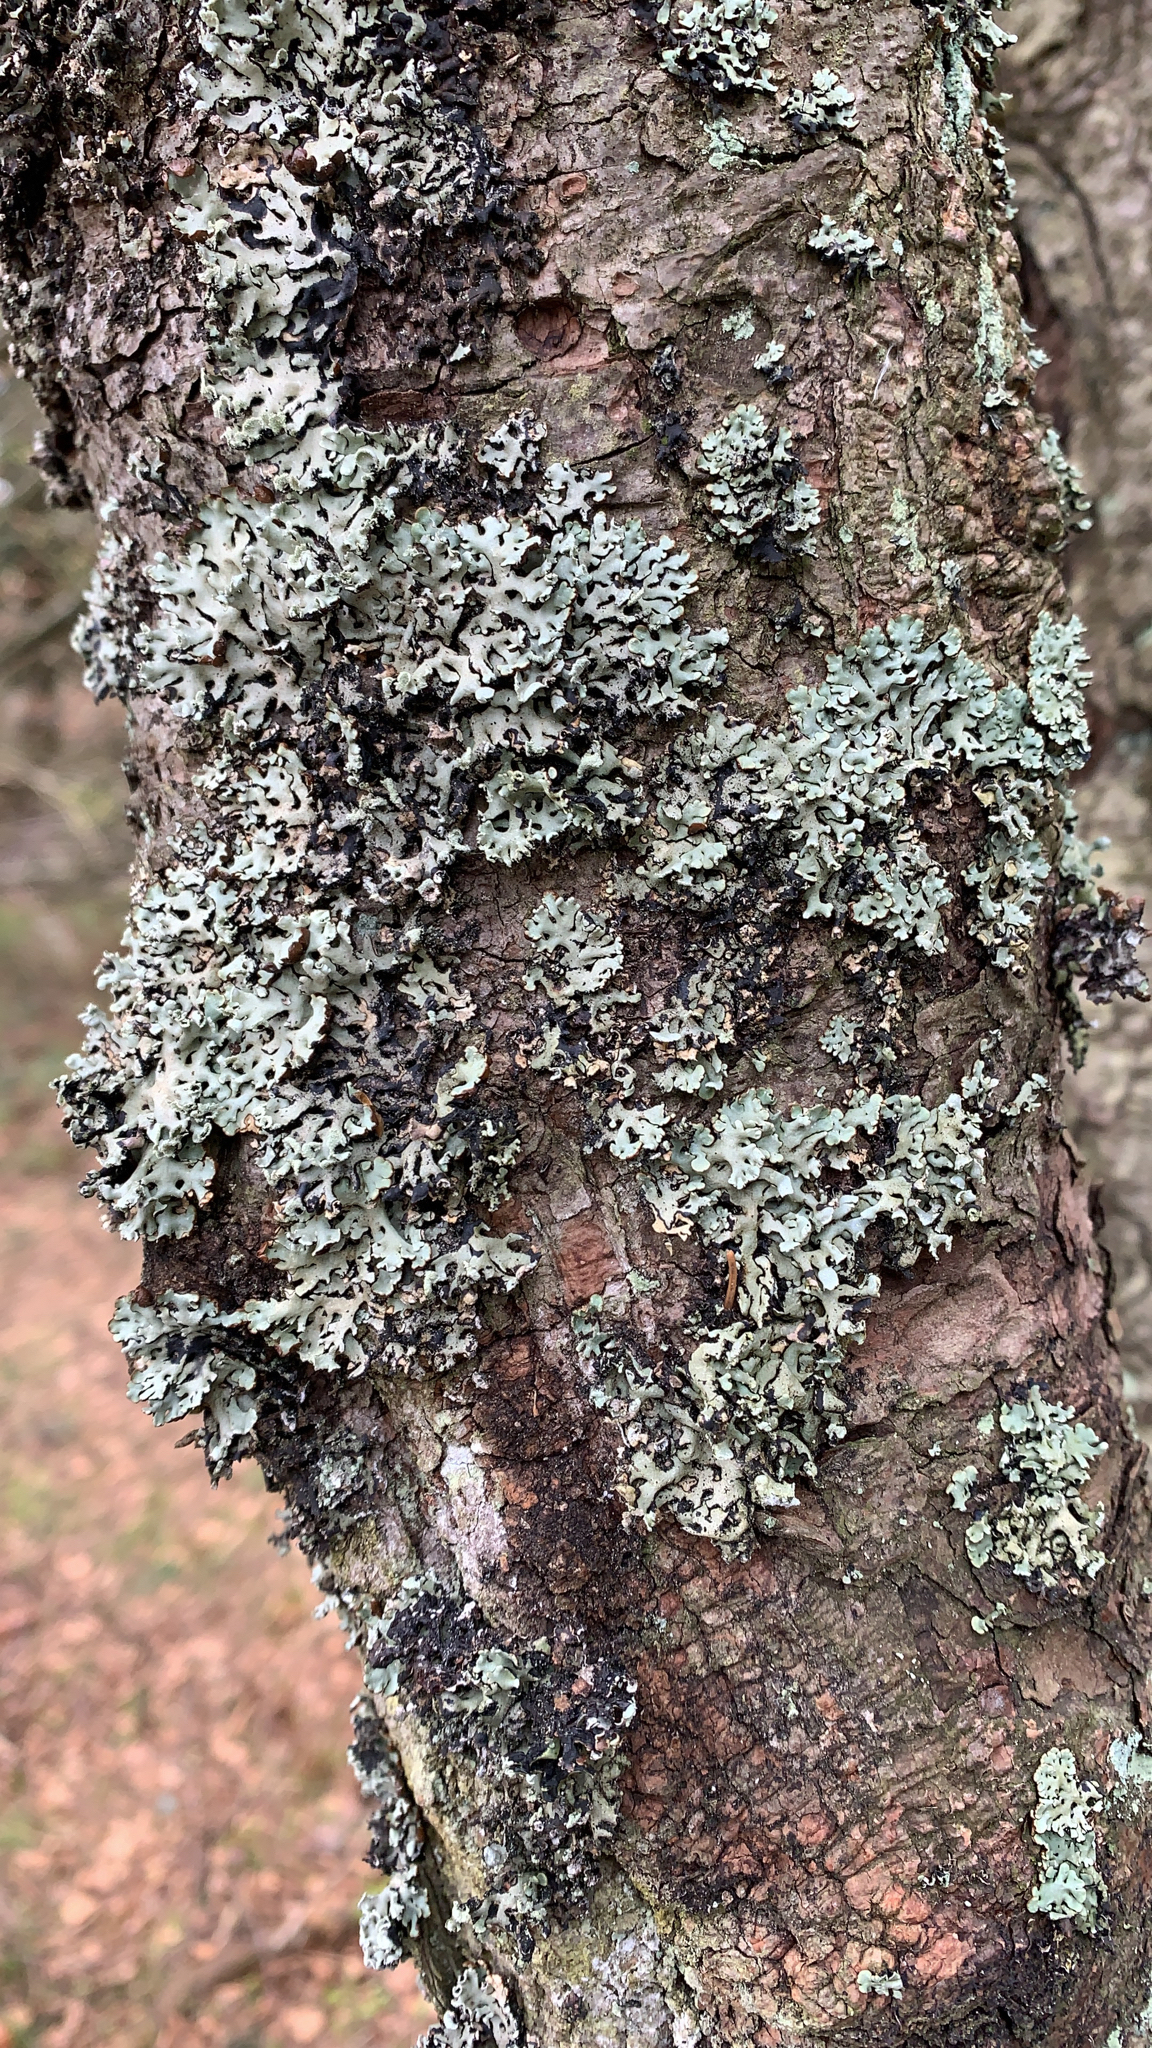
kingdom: Fungi
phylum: Ascomycota
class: Lecanoromycetes
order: Lecanorales
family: Parmeliaceae
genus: Hypogymnia
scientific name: Hypogymnia physodes
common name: Dark crottle
